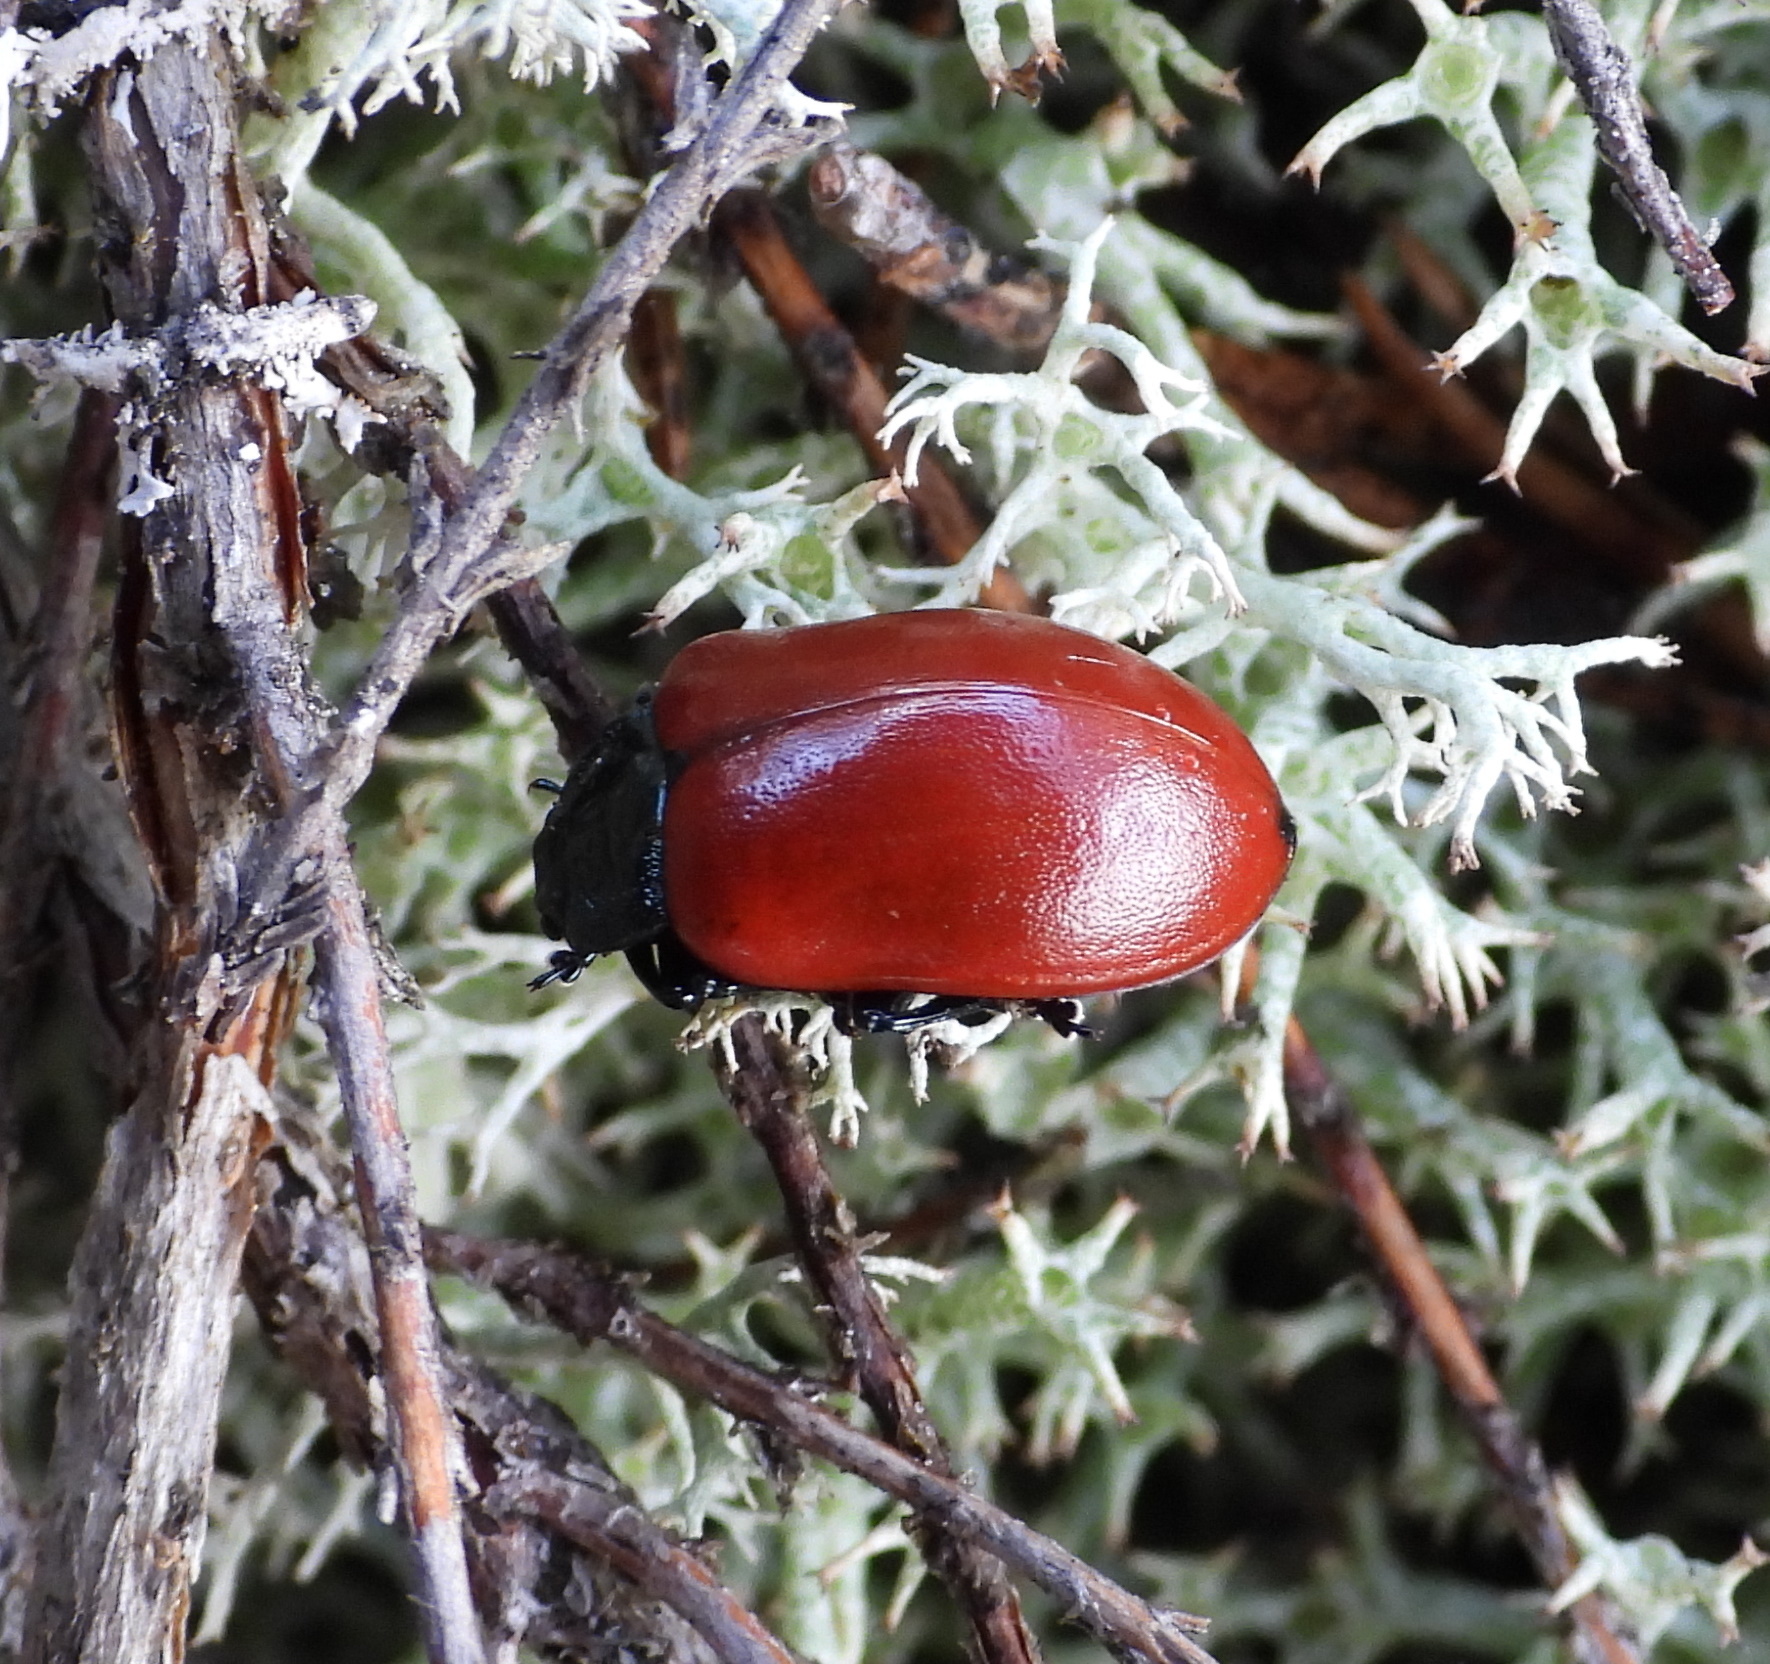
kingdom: Animalia
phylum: Arthropoda
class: Insecta
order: Coleoptera
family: Chrysomelidae
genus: Chrysomela
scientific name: Chrysomela populi
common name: Red poplar leaf beetle
